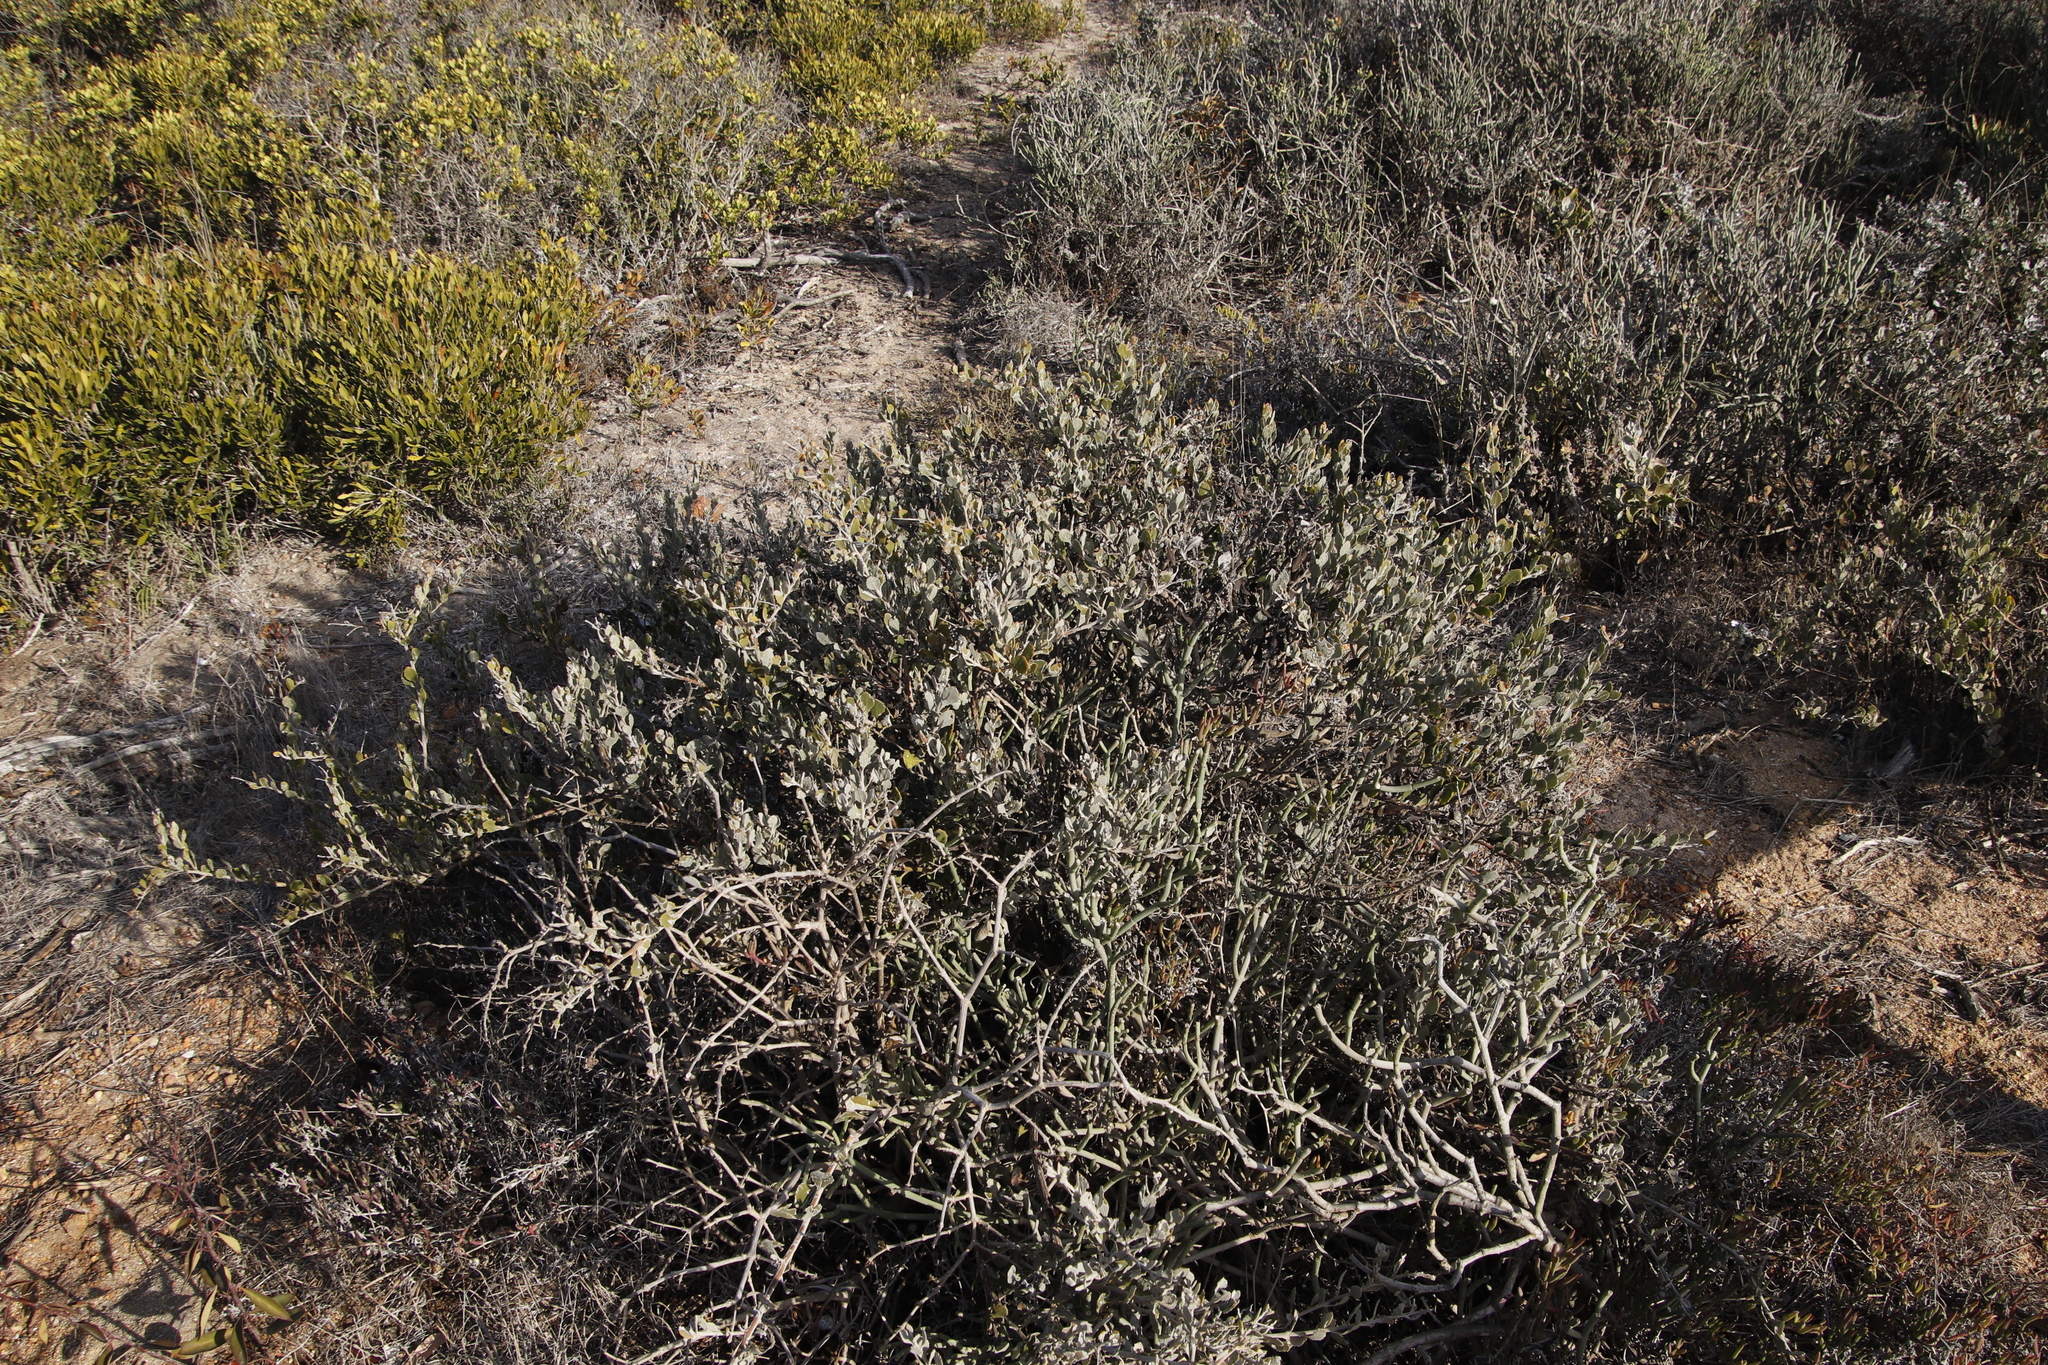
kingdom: Plantae
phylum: Tracheophyta
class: Magnoliopsida
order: Asterales
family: Asteraceae
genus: Osteospermum
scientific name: Osteospermum incanum
